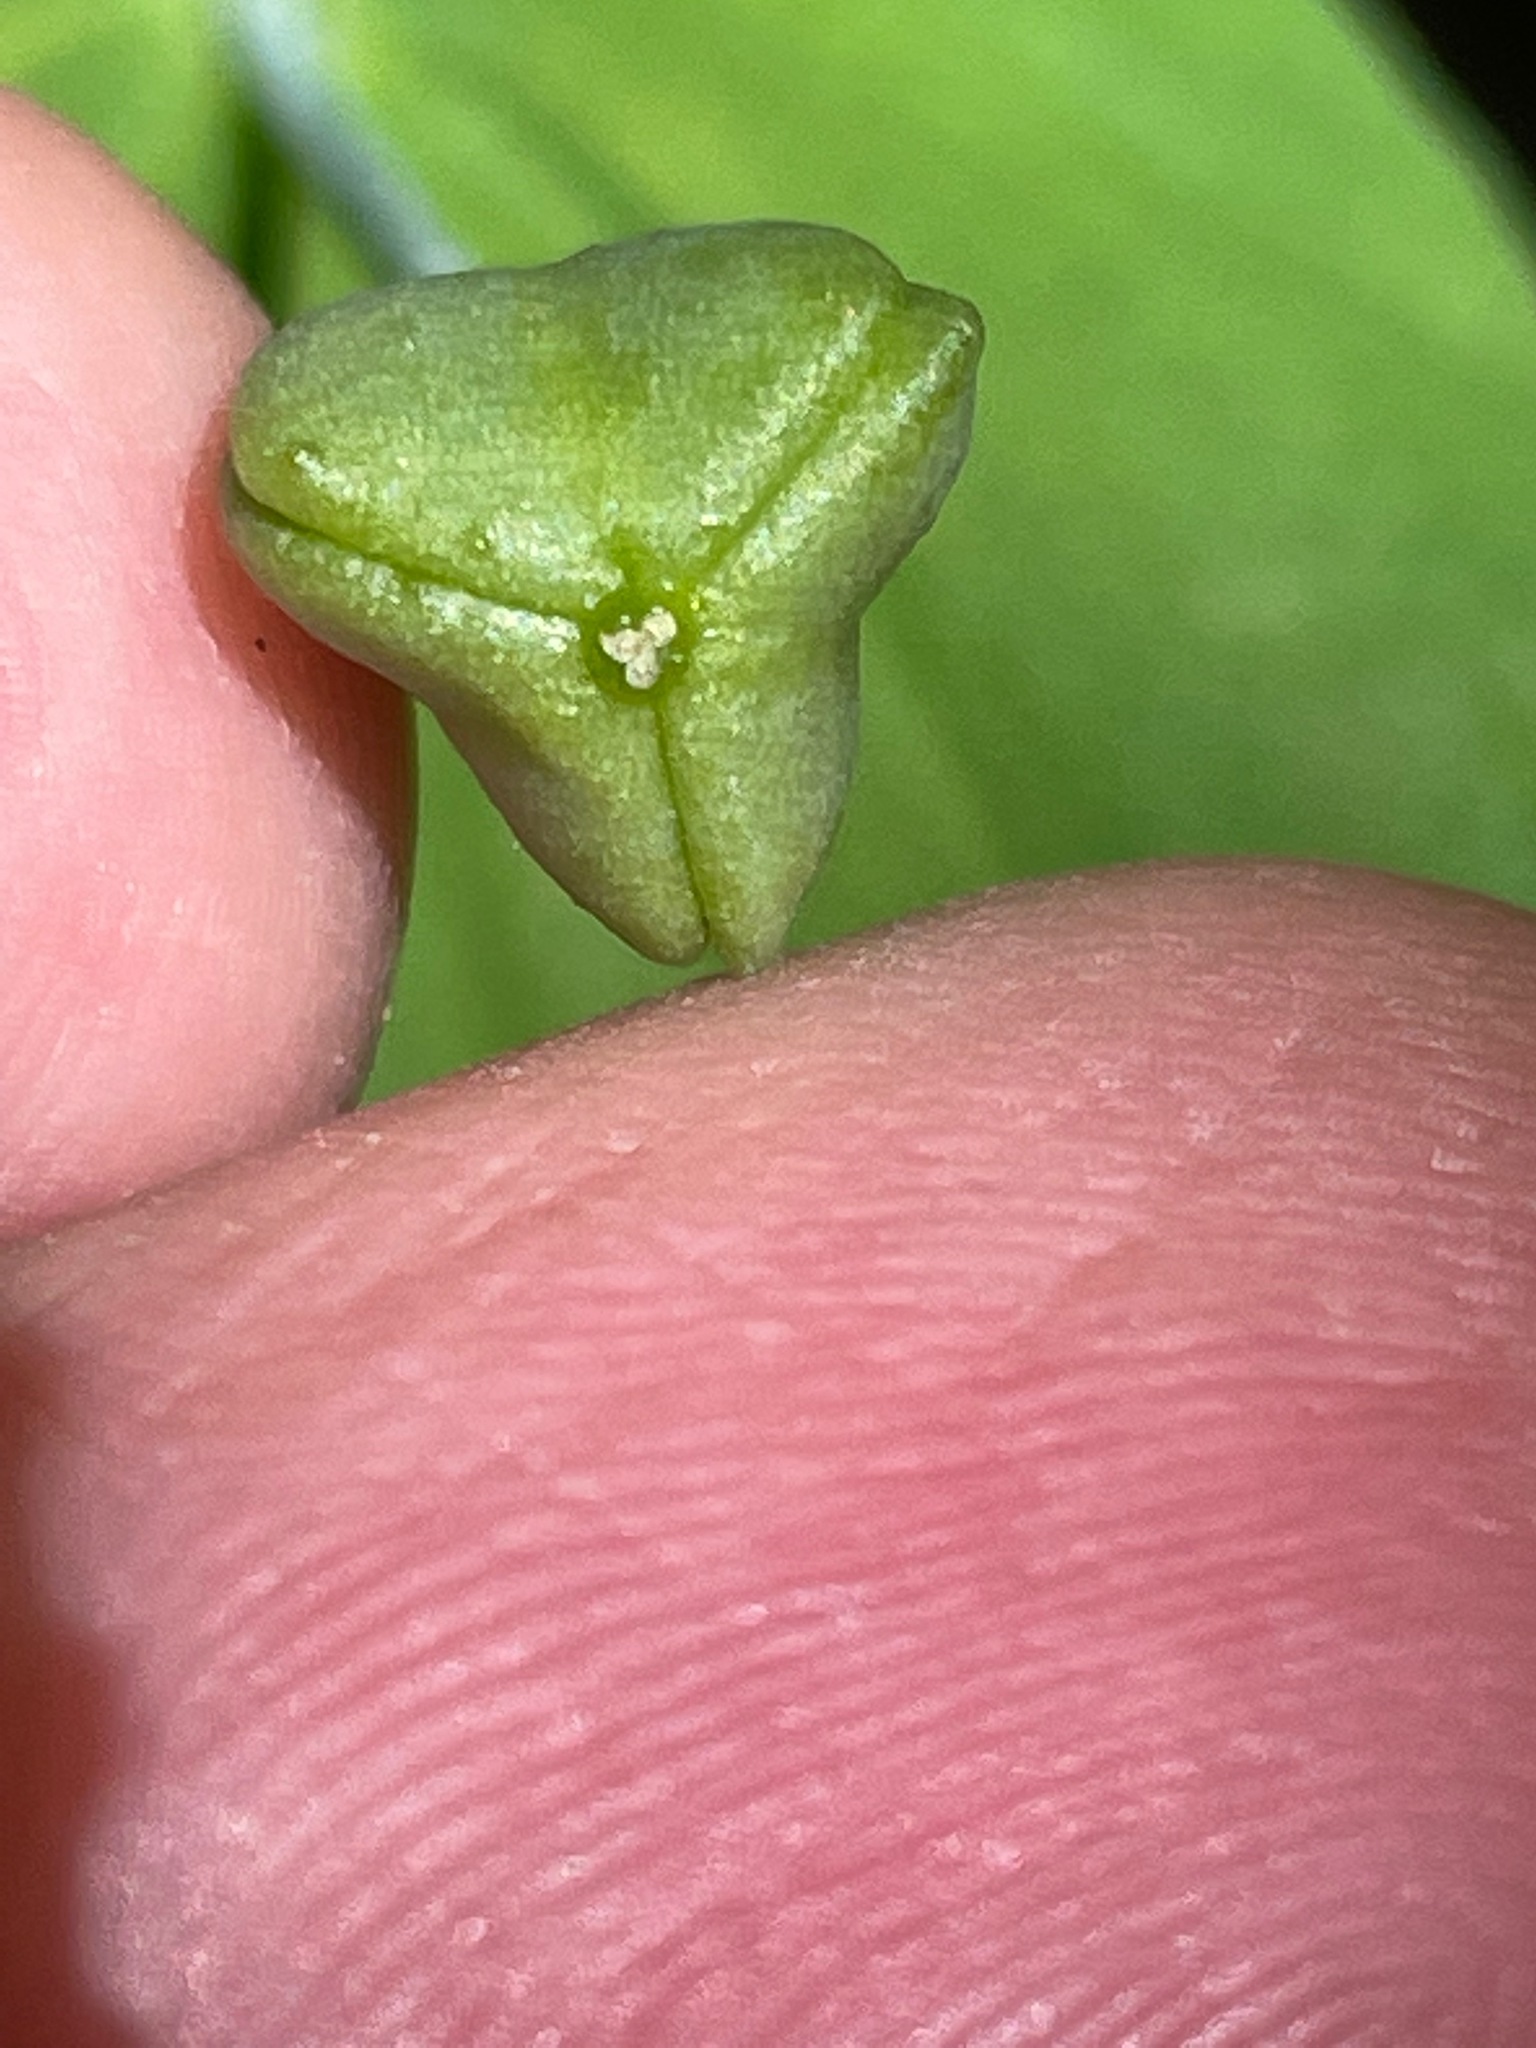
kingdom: Plantae
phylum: Tracheophyta
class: Liliopsida
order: Liliales
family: Colchicaceae
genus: Uvularia
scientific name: Uvularia grandiflora
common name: Bellwort
